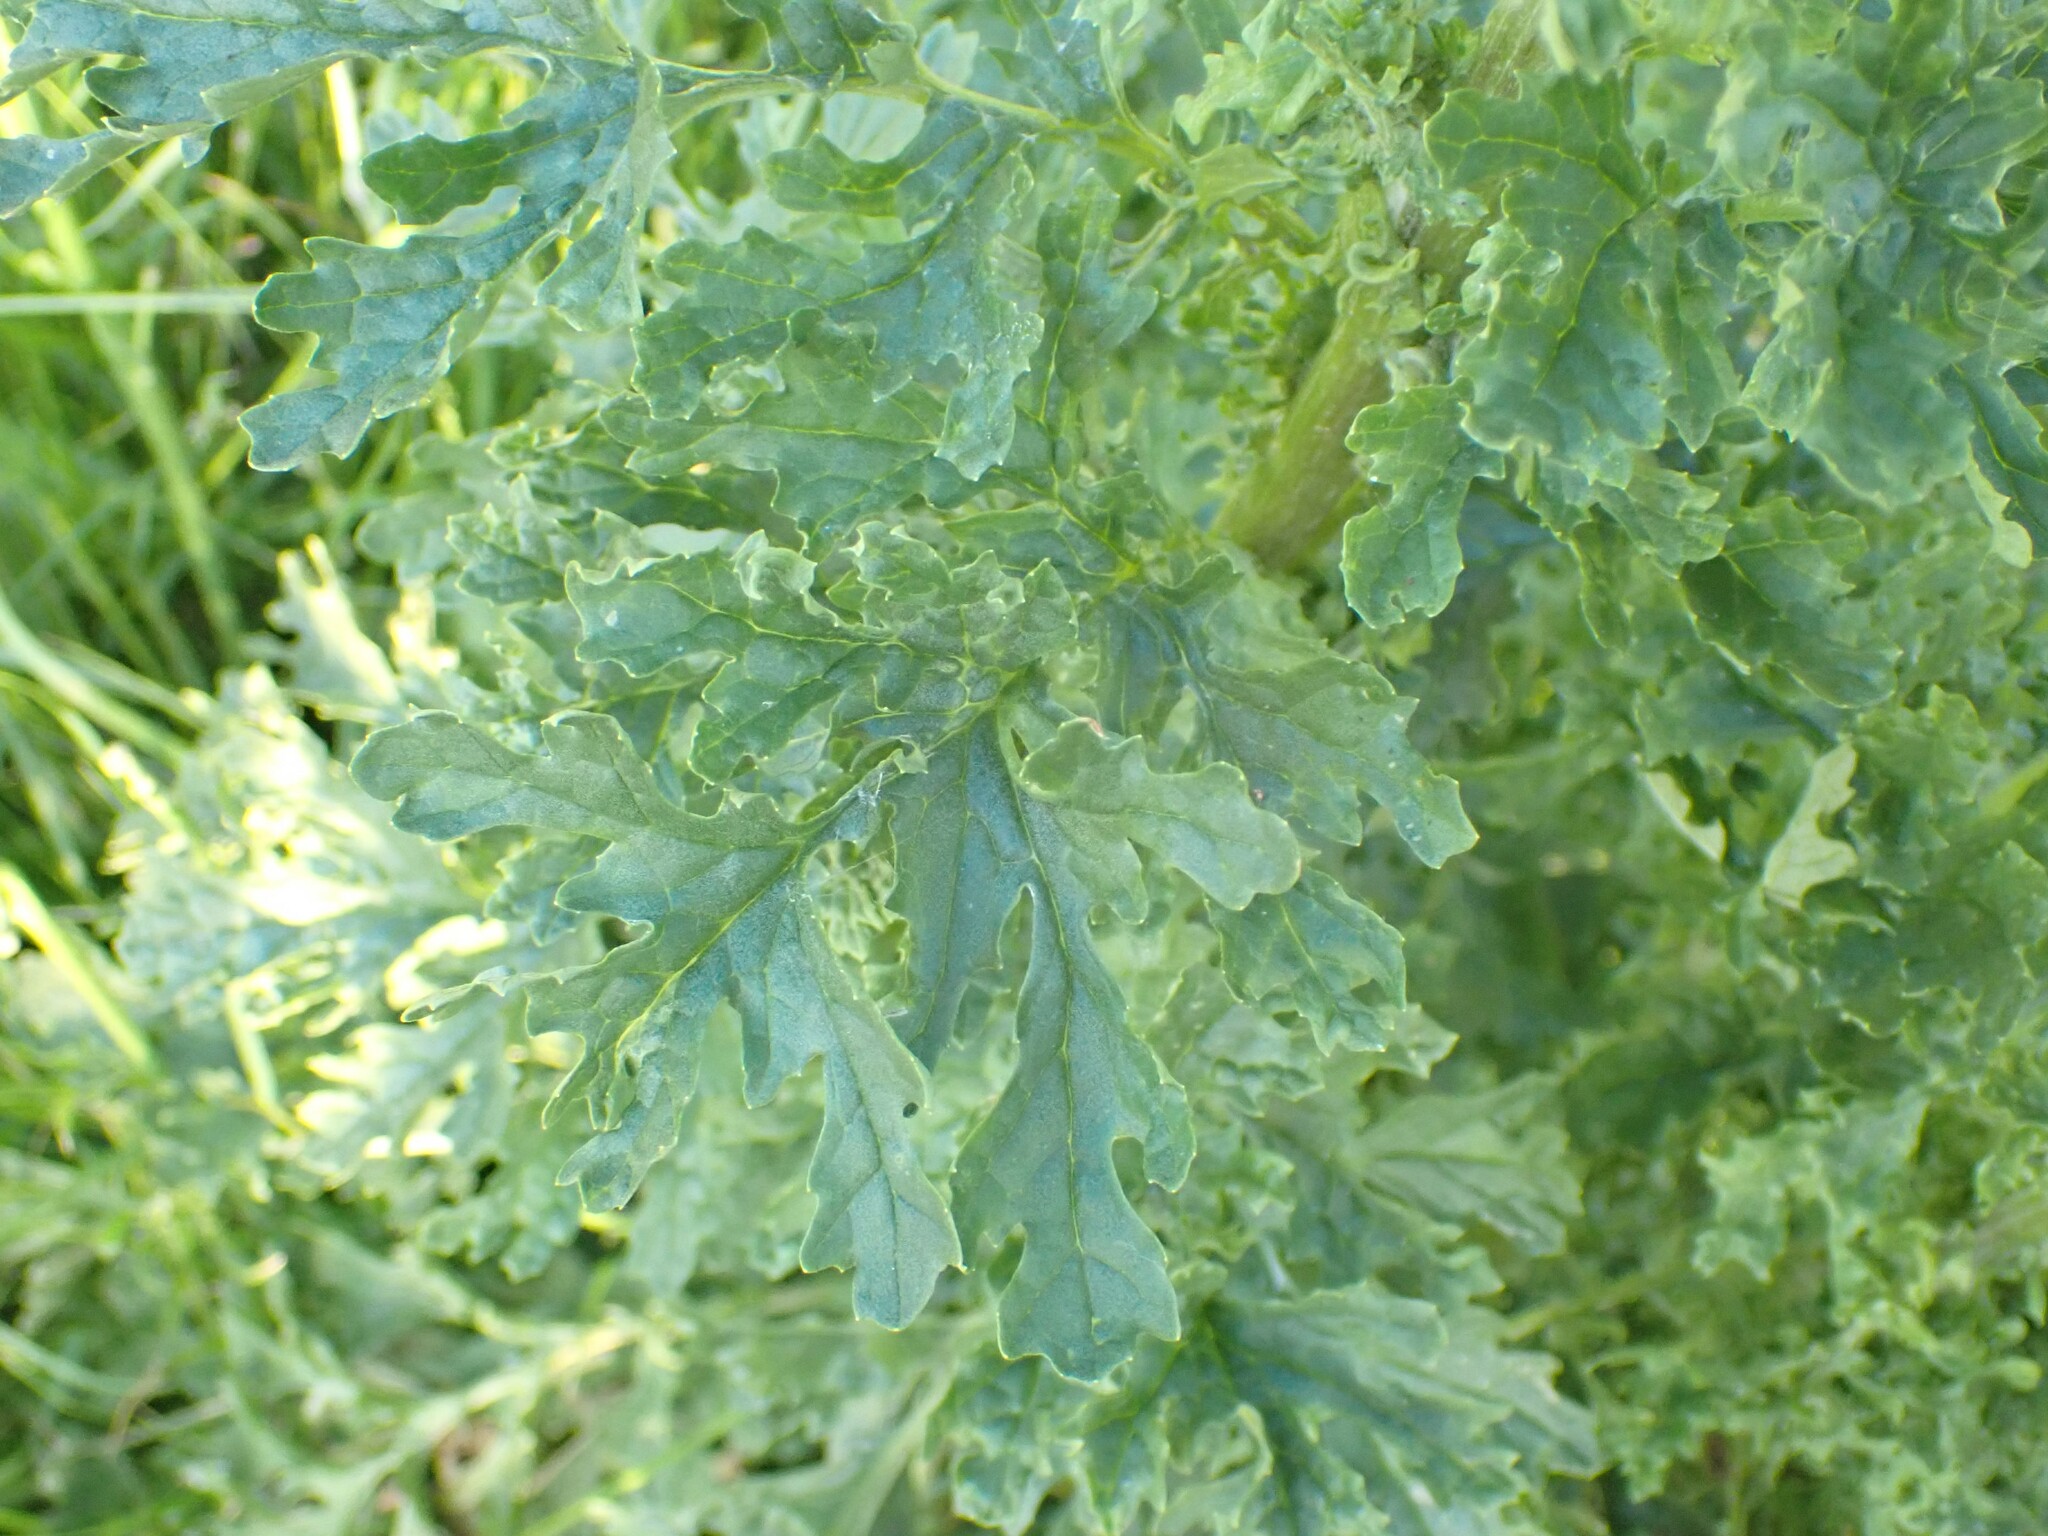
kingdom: Plantae
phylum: Tracheophyta
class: Magnoliopsida
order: Asterales
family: Asteraceae
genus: Jacobaea
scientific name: Jacobaea vulgaris
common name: Stinking willie
